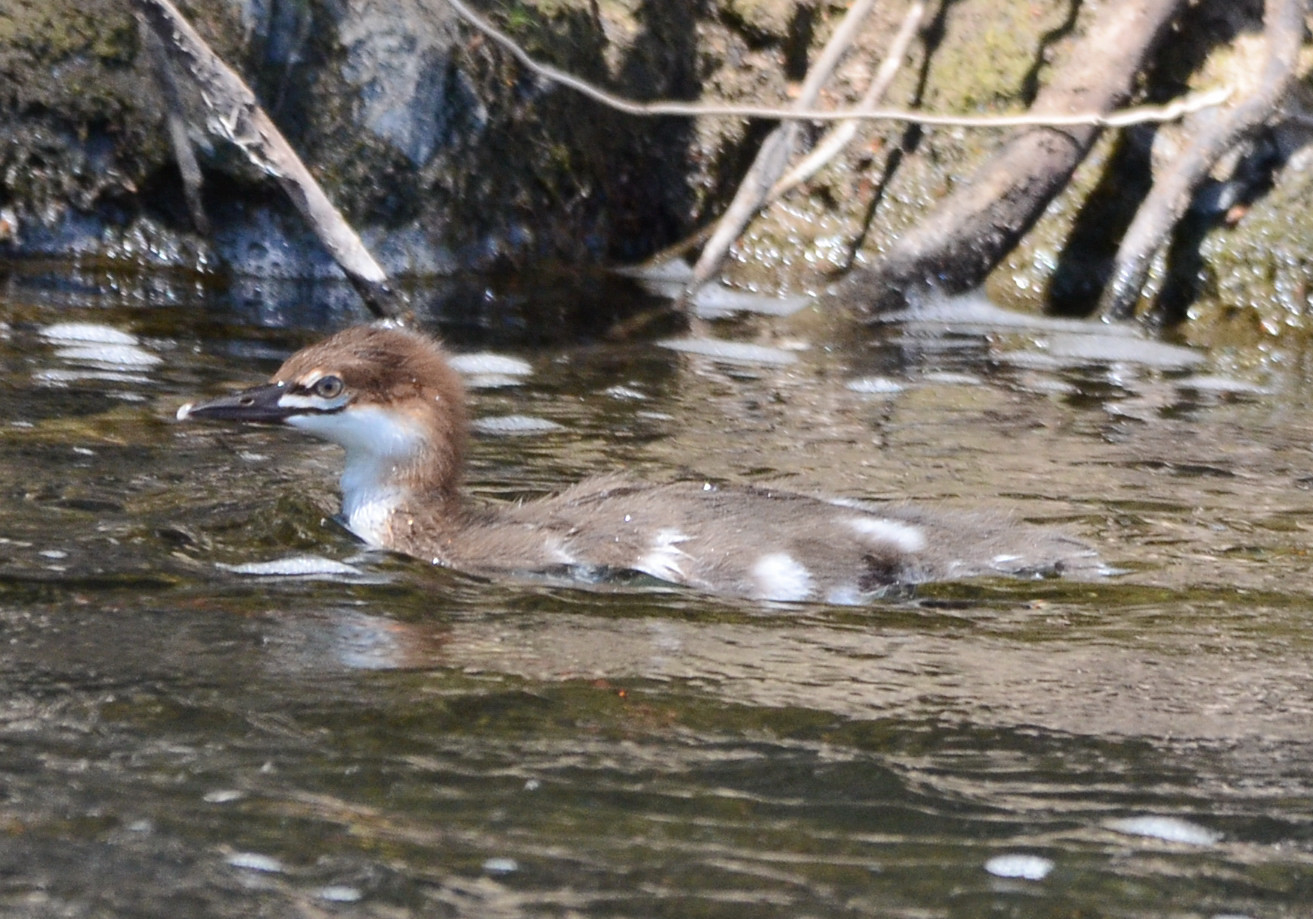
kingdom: Animalia
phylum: Chordata
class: Aves
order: Anseriformes
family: Anatidae
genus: Mergus
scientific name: Mergus merganser
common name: Common merganser
